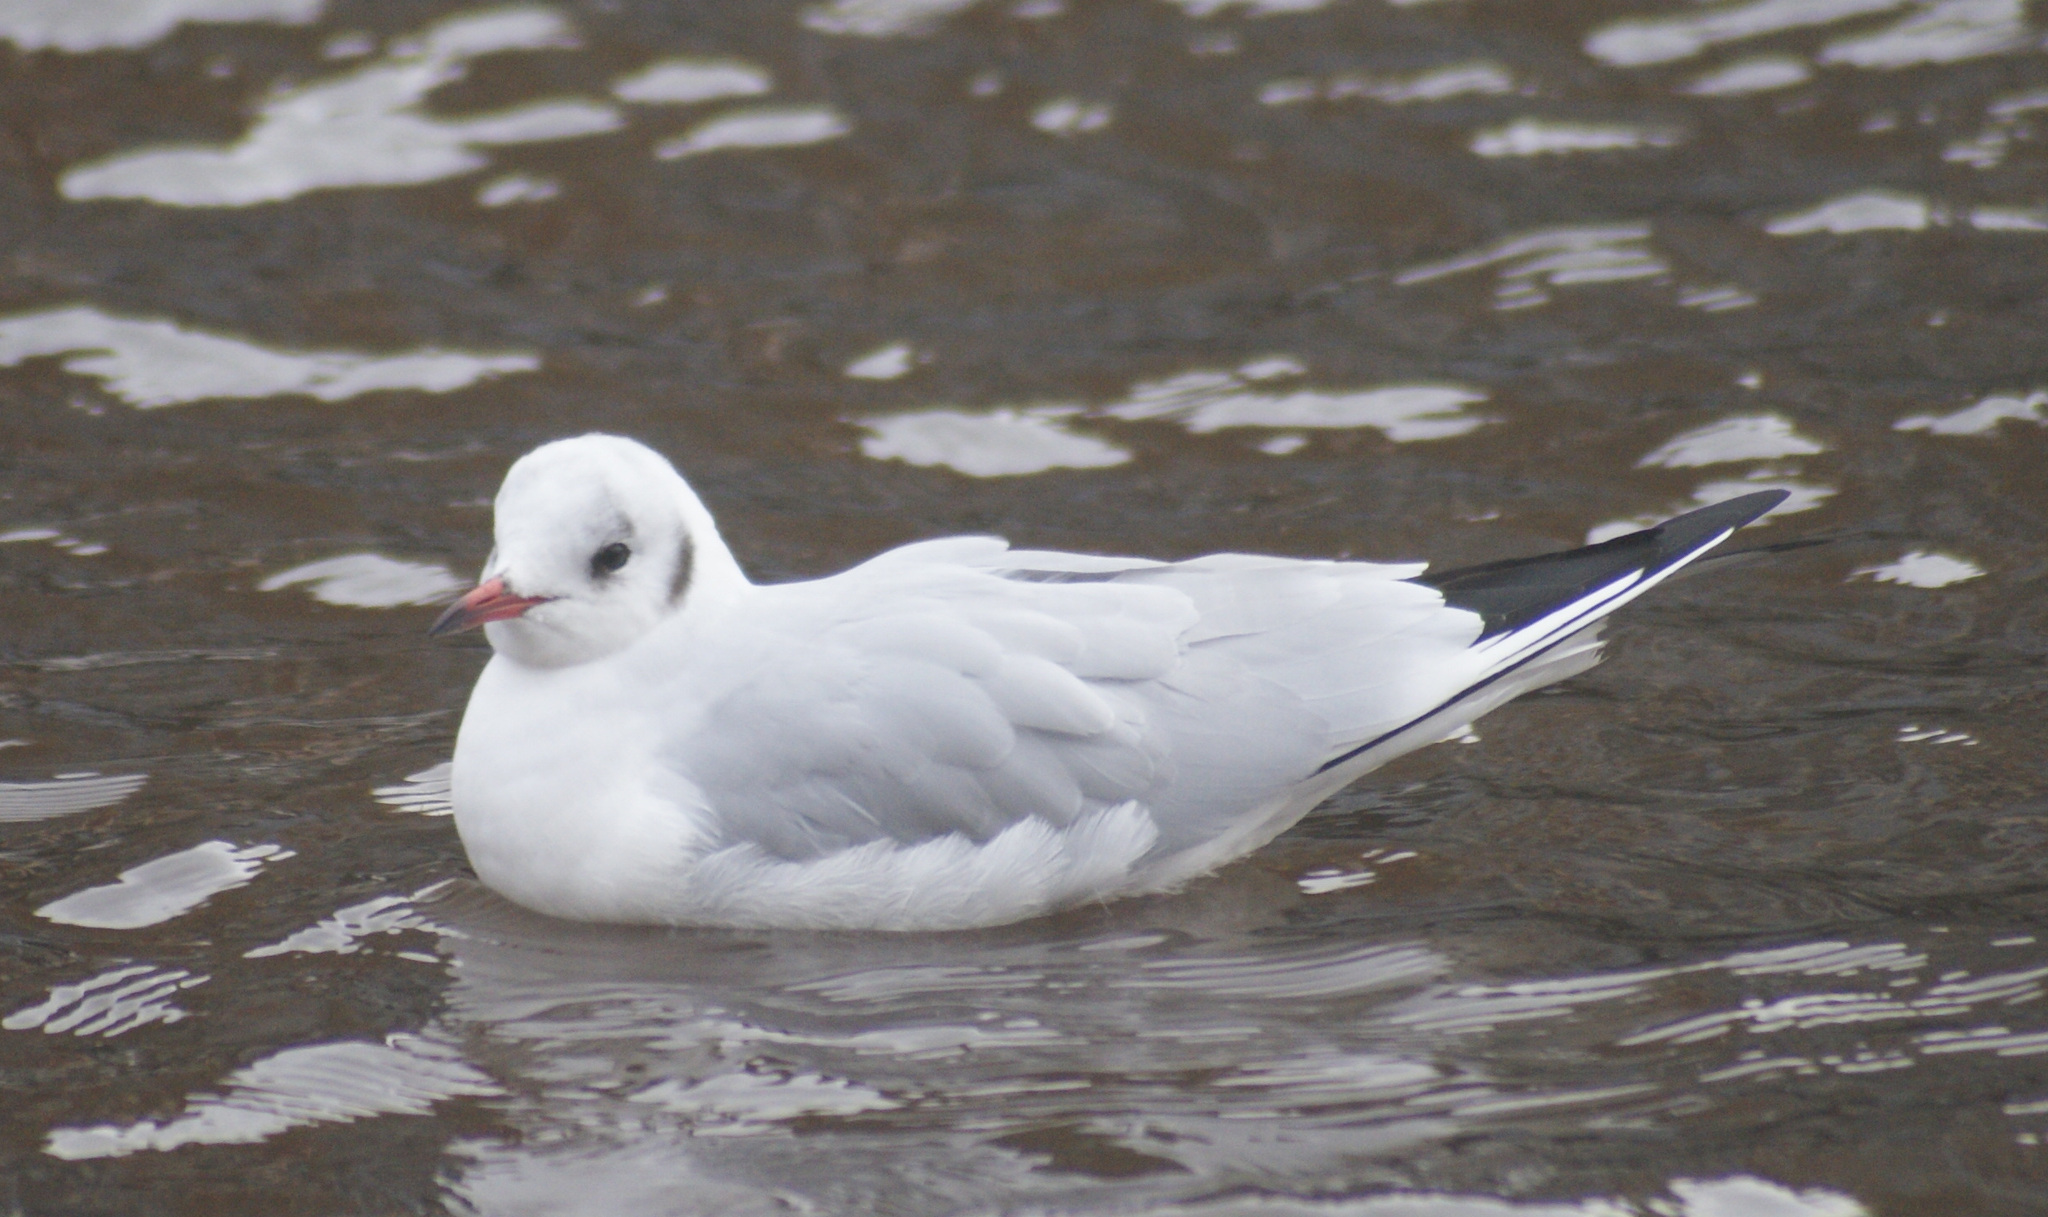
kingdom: Animalia
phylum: Chordata
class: Aves
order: Charadriiformes
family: Laridae
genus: Chroicocephalus
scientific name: Chroicocephalus ridibundus
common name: Black-headed gull
